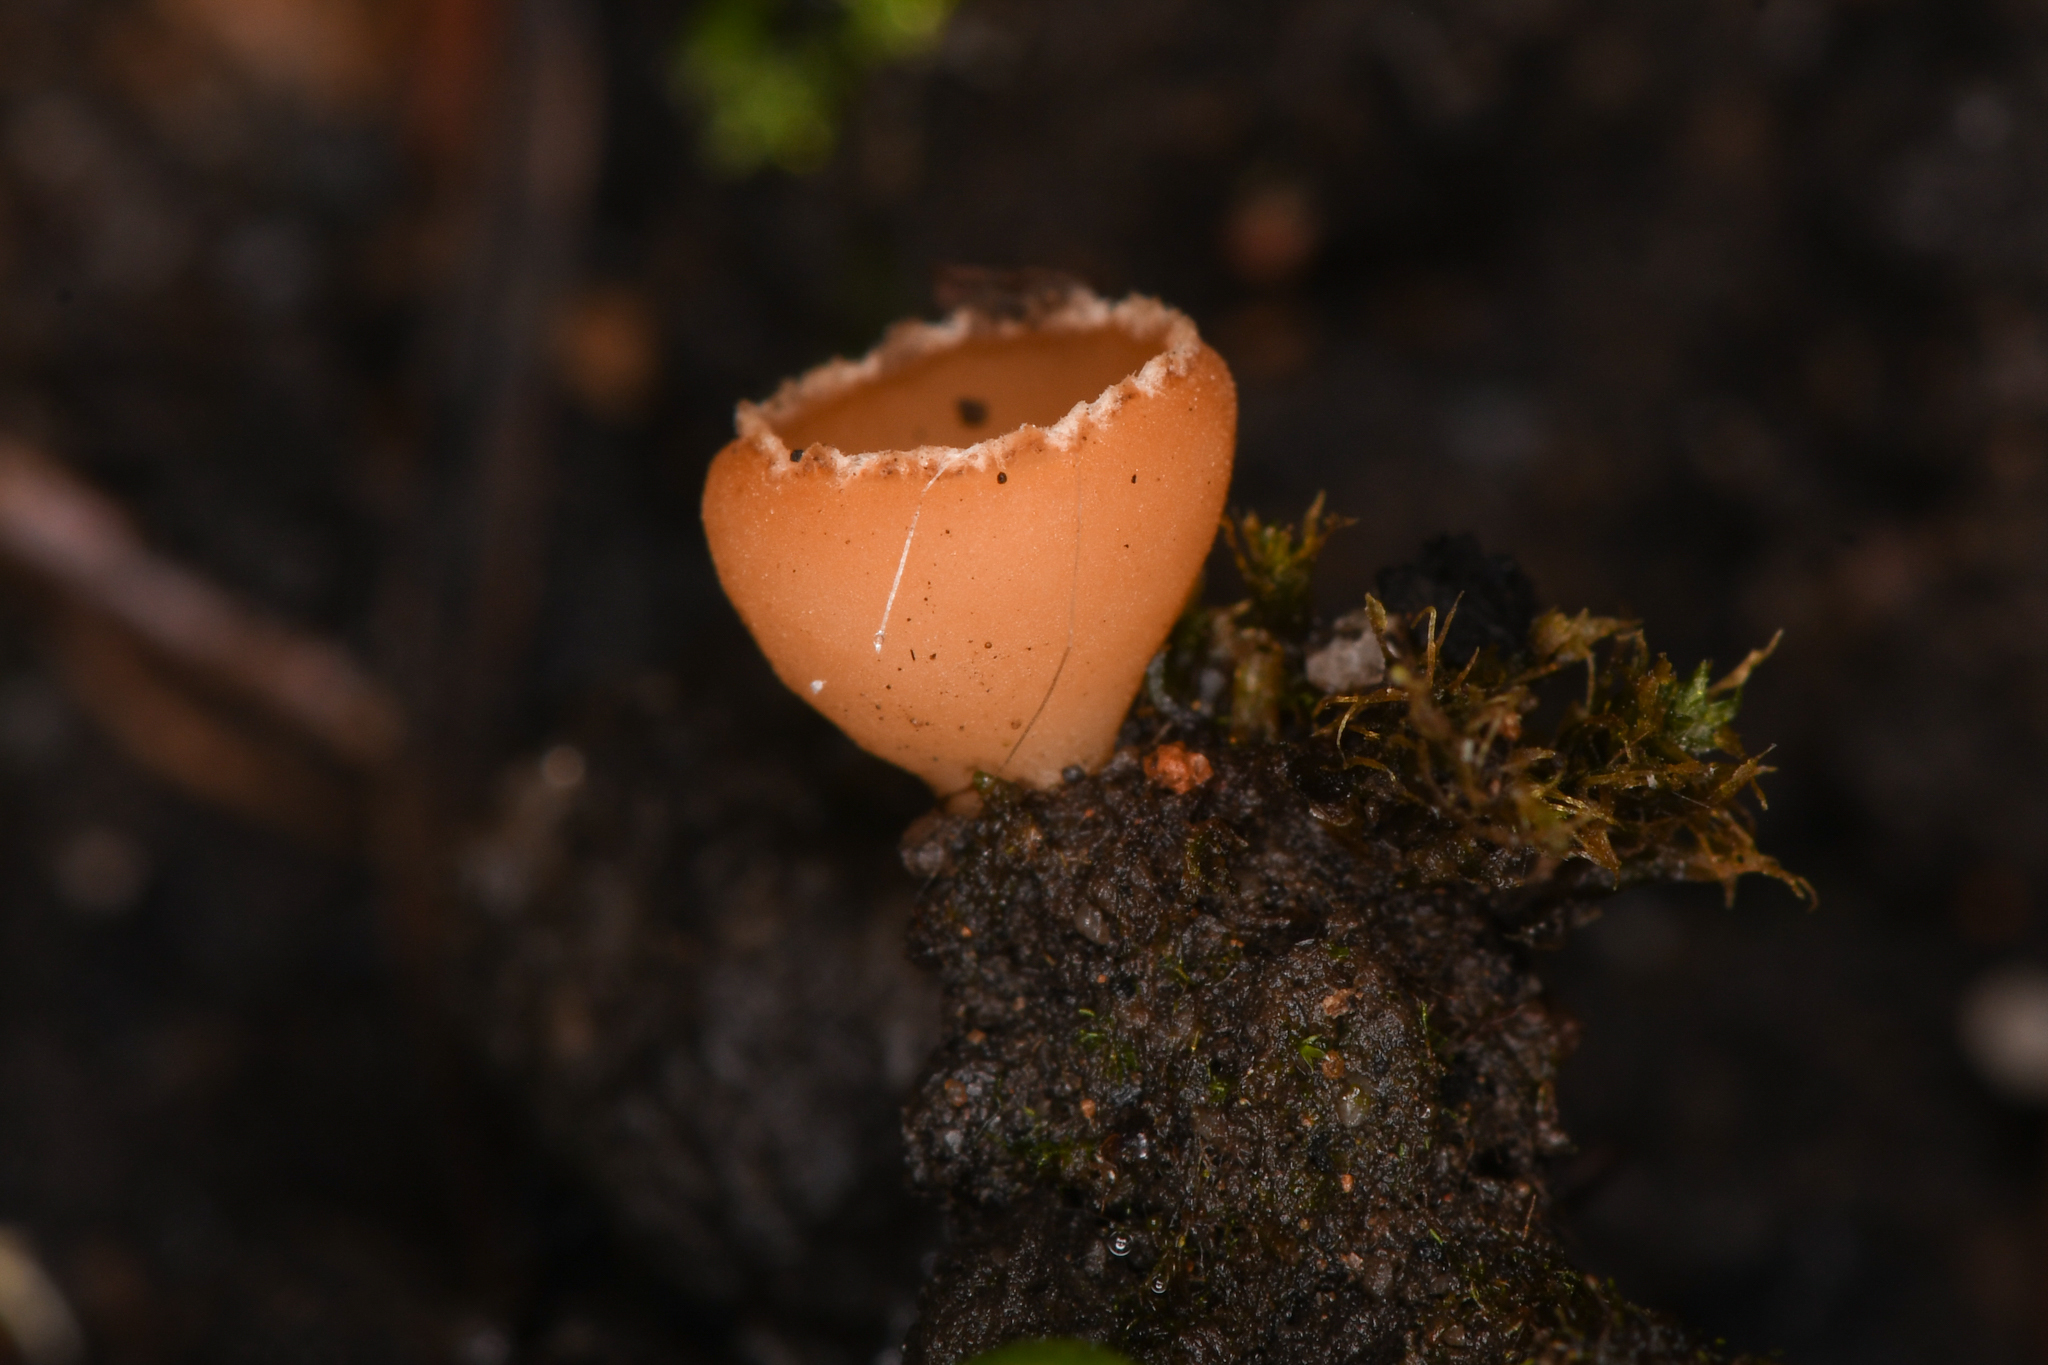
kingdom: Fungi
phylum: Ascomycota
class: Pezizomycetes
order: Pezizales
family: Pyronemataceae
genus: Geopyxis
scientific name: Geopyxis carbonaria
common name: Stalked bonfire cup
